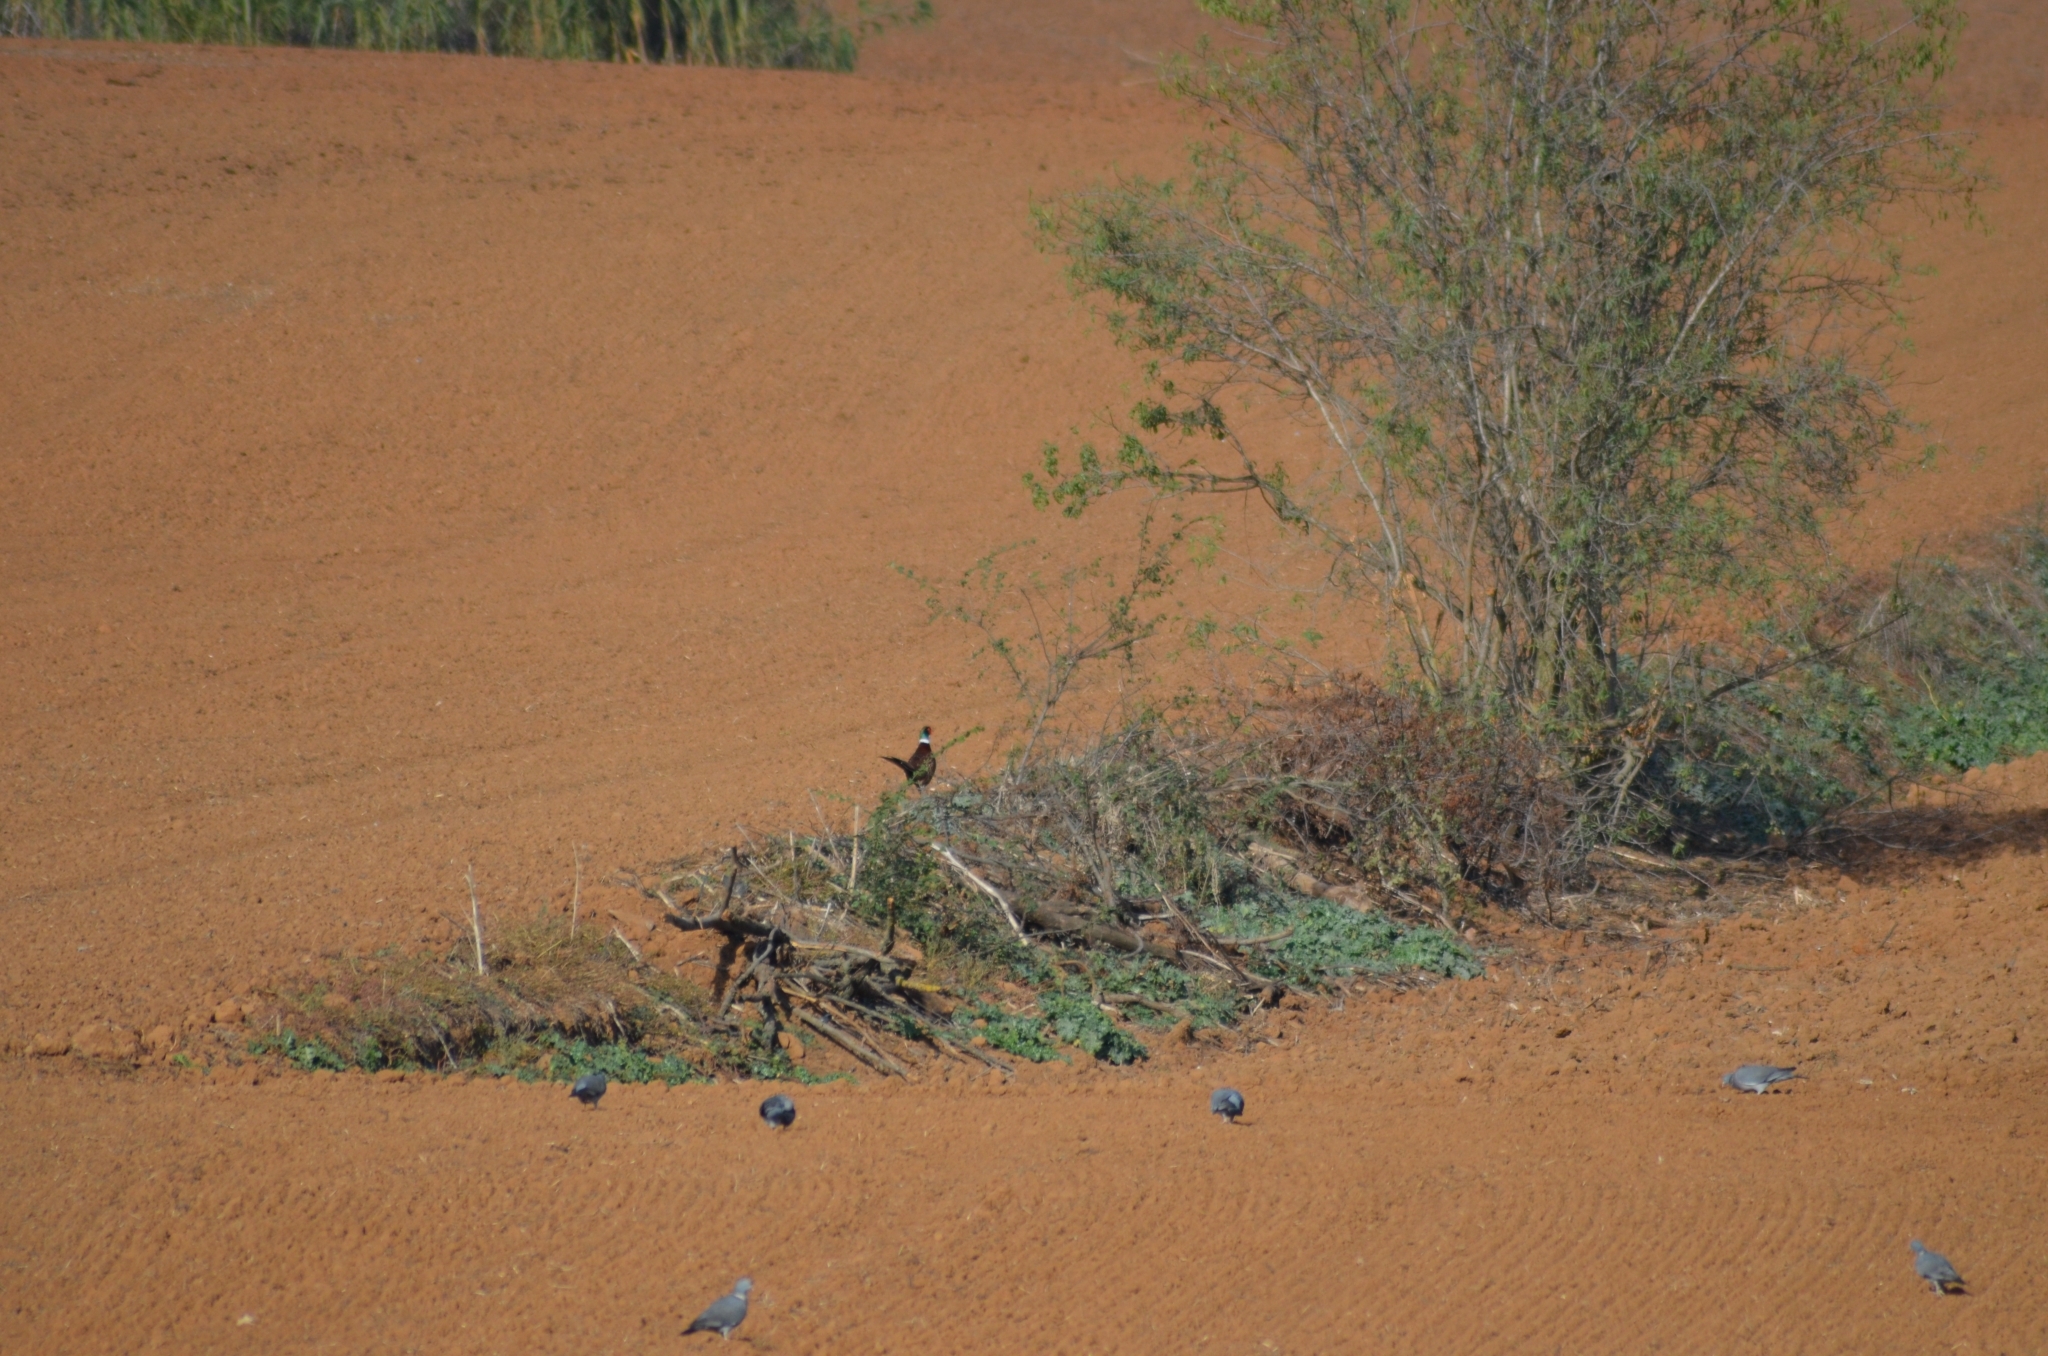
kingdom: Animalia
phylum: Chordata
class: Aves
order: Galliformes
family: Phasianidae
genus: Phasianus
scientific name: Phasianus colchicus
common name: Common pheasant
